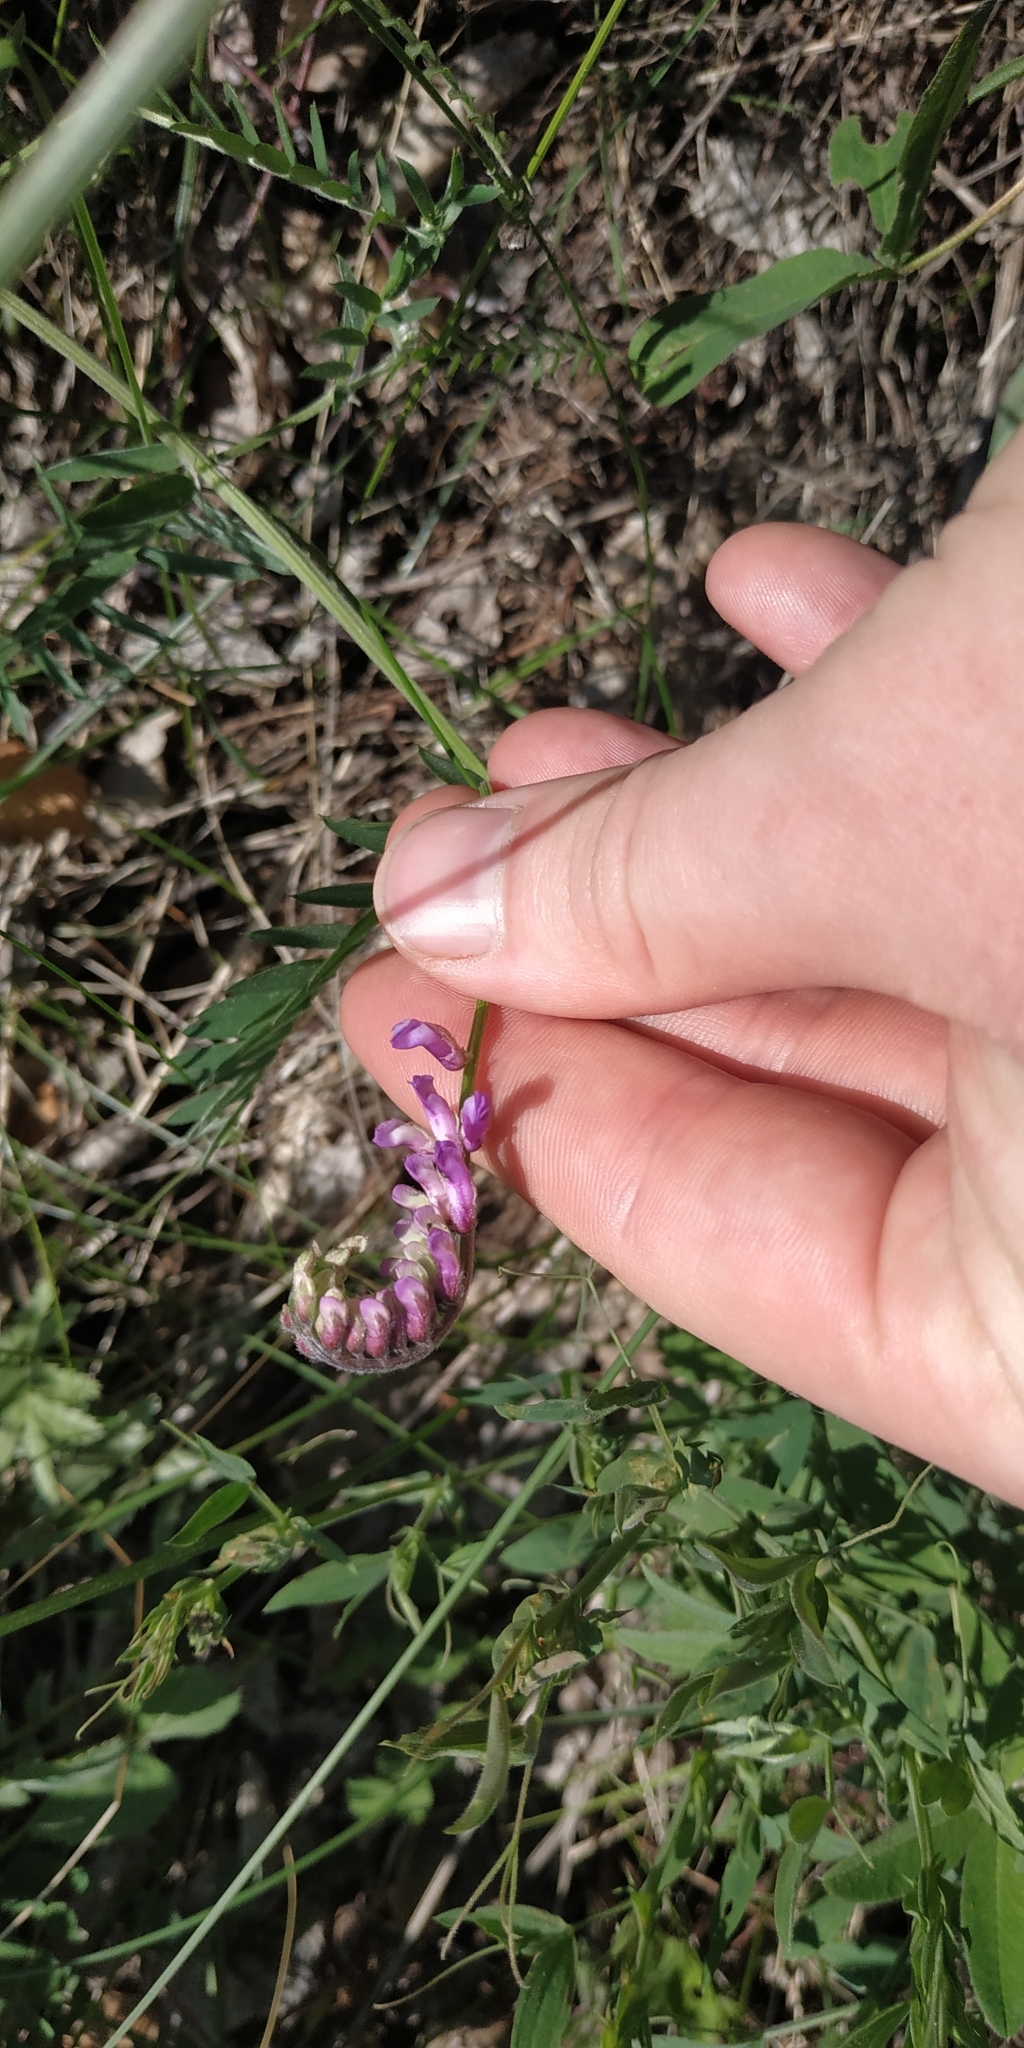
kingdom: Plantae
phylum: Tracheophyta
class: Magnoliopsida
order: Fabales
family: Fabaceae
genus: Vicia
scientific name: Vicia cracca
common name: Bird vetch
